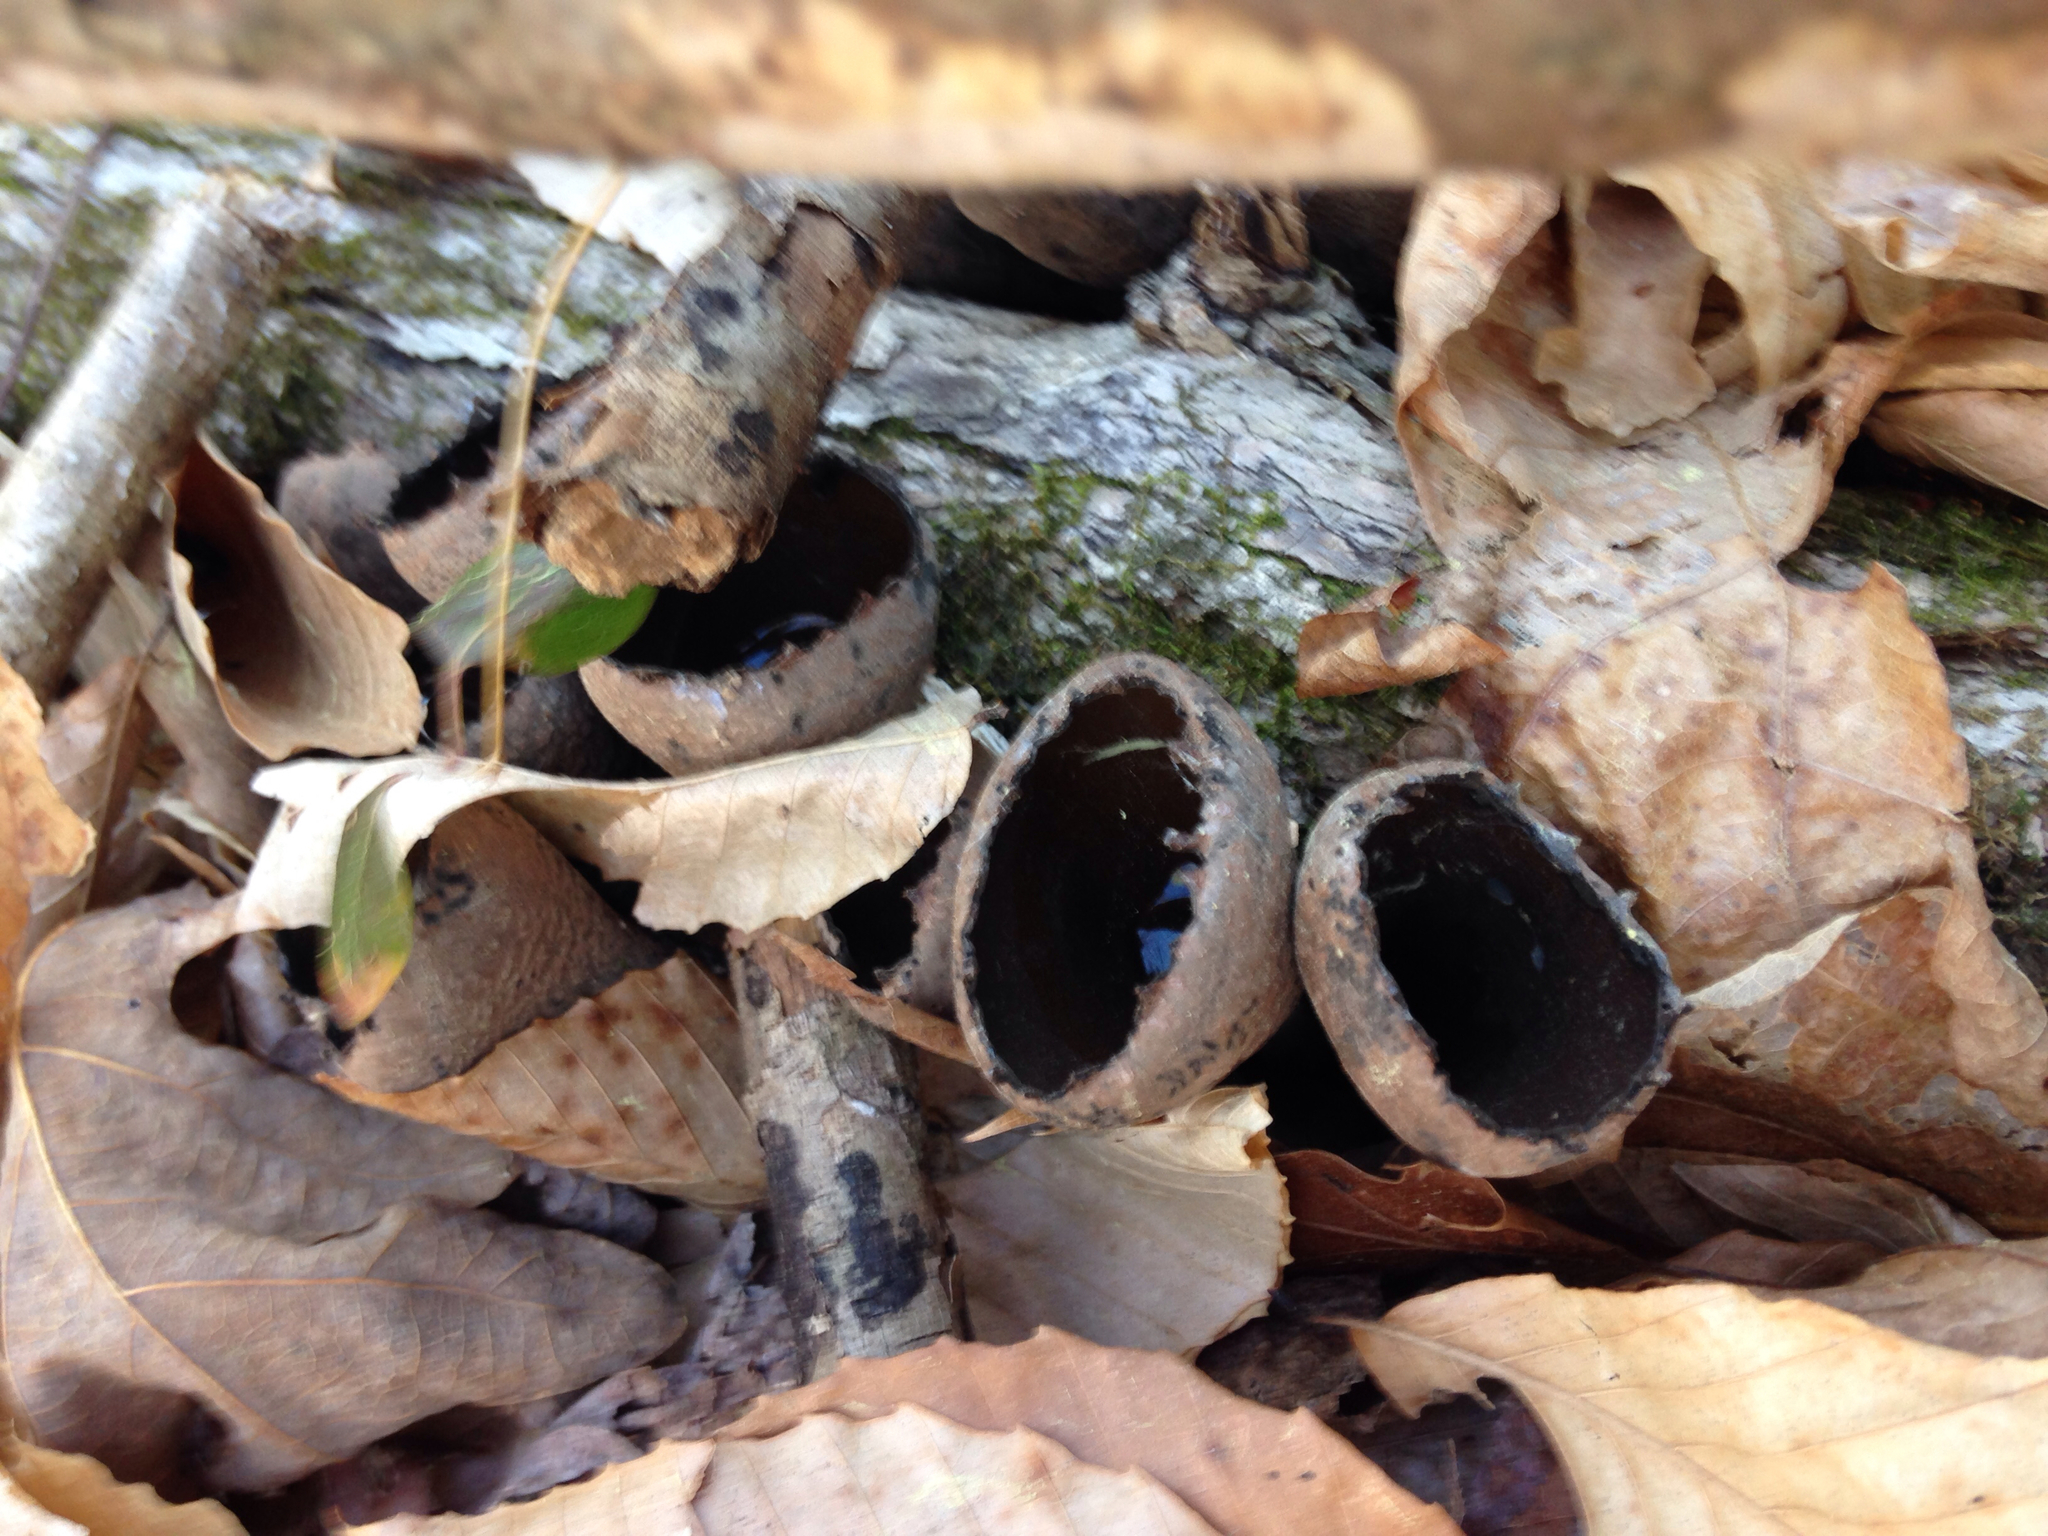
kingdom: Fungi
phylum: Ascomycota
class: Pezizomycetes
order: Pezizales
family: Sarcosomataceae
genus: Urnula
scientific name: Urnula craterium
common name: Devil's urn
